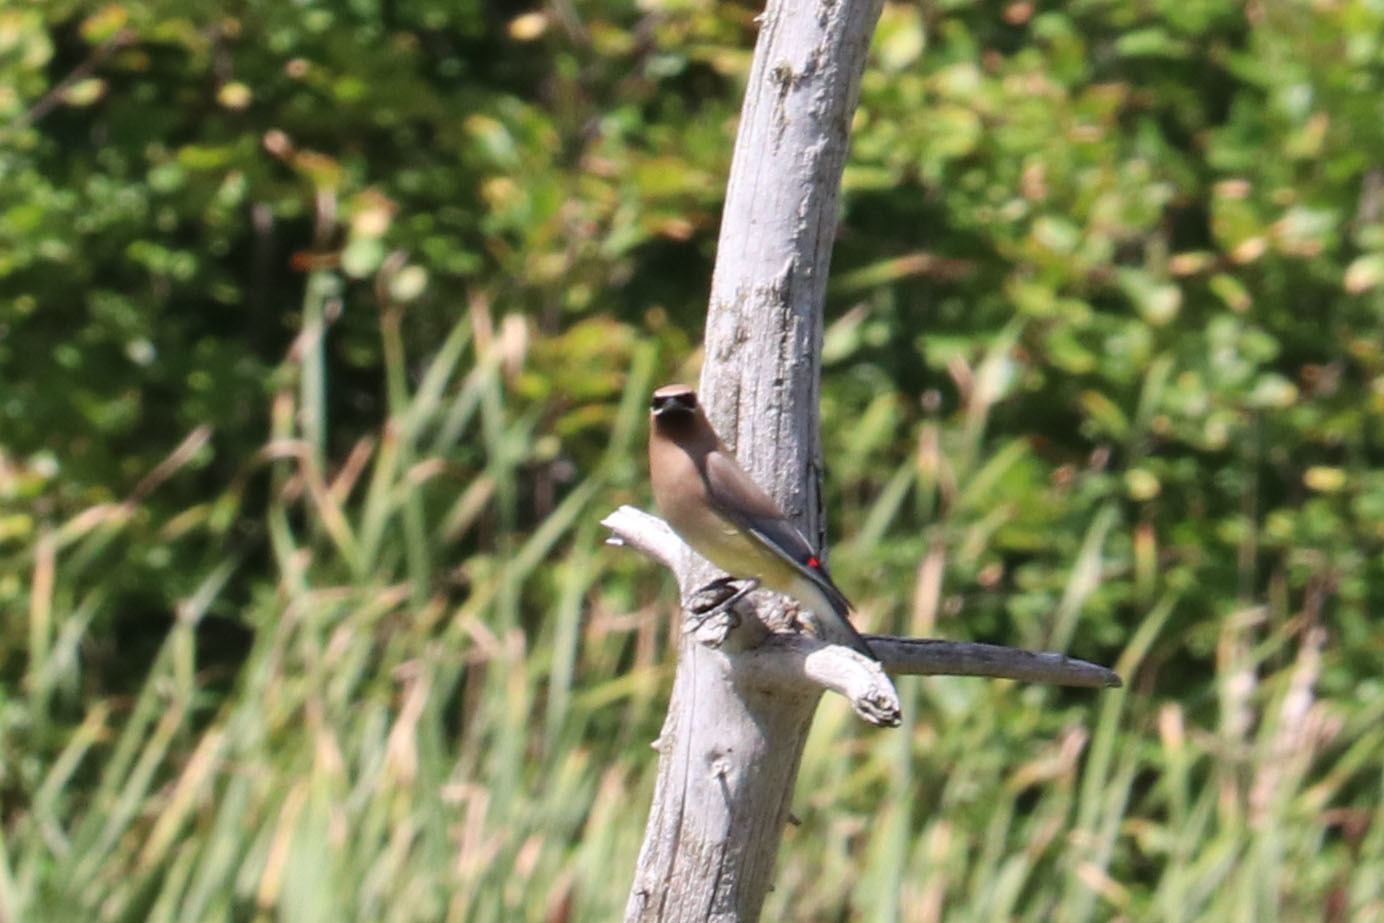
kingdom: Animalia
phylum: Chordata
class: Aves
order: Passeriformes
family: Bombycillidae
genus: Bombycilla
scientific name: Bombycilla cedrorum
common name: Cedar waxwing
